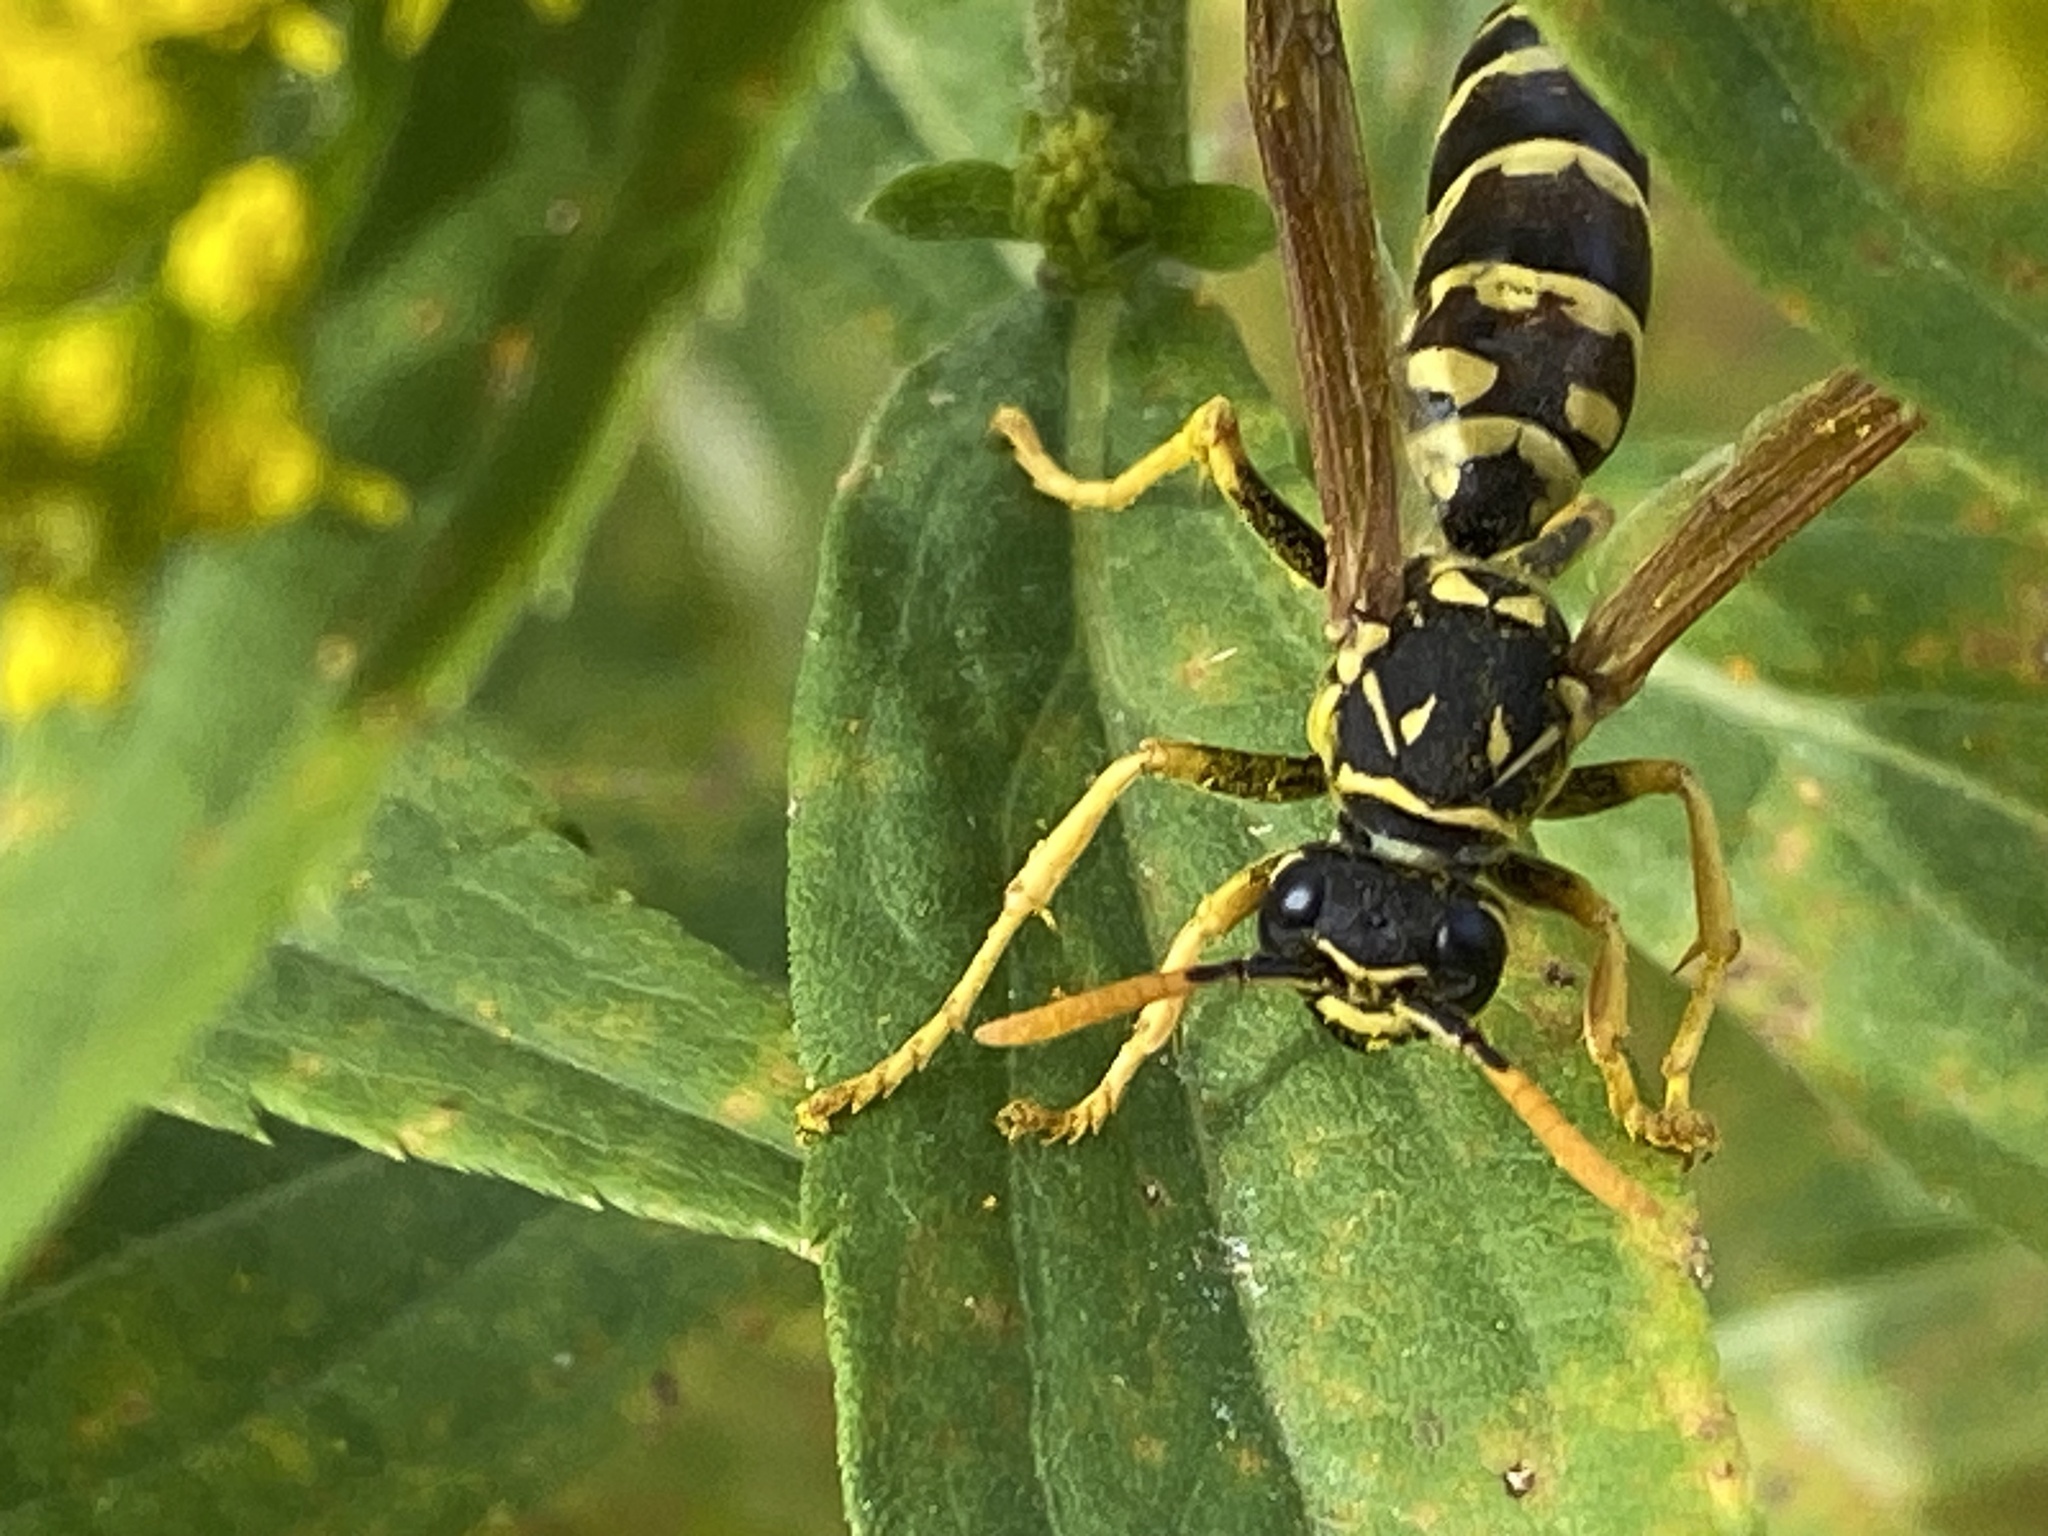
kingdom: Animalia
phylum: Arthropoda
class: Insecta
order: Hymenoptera
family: Eumenidae
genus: Polistes
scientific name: Polistes dominula
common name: Paper wasp
